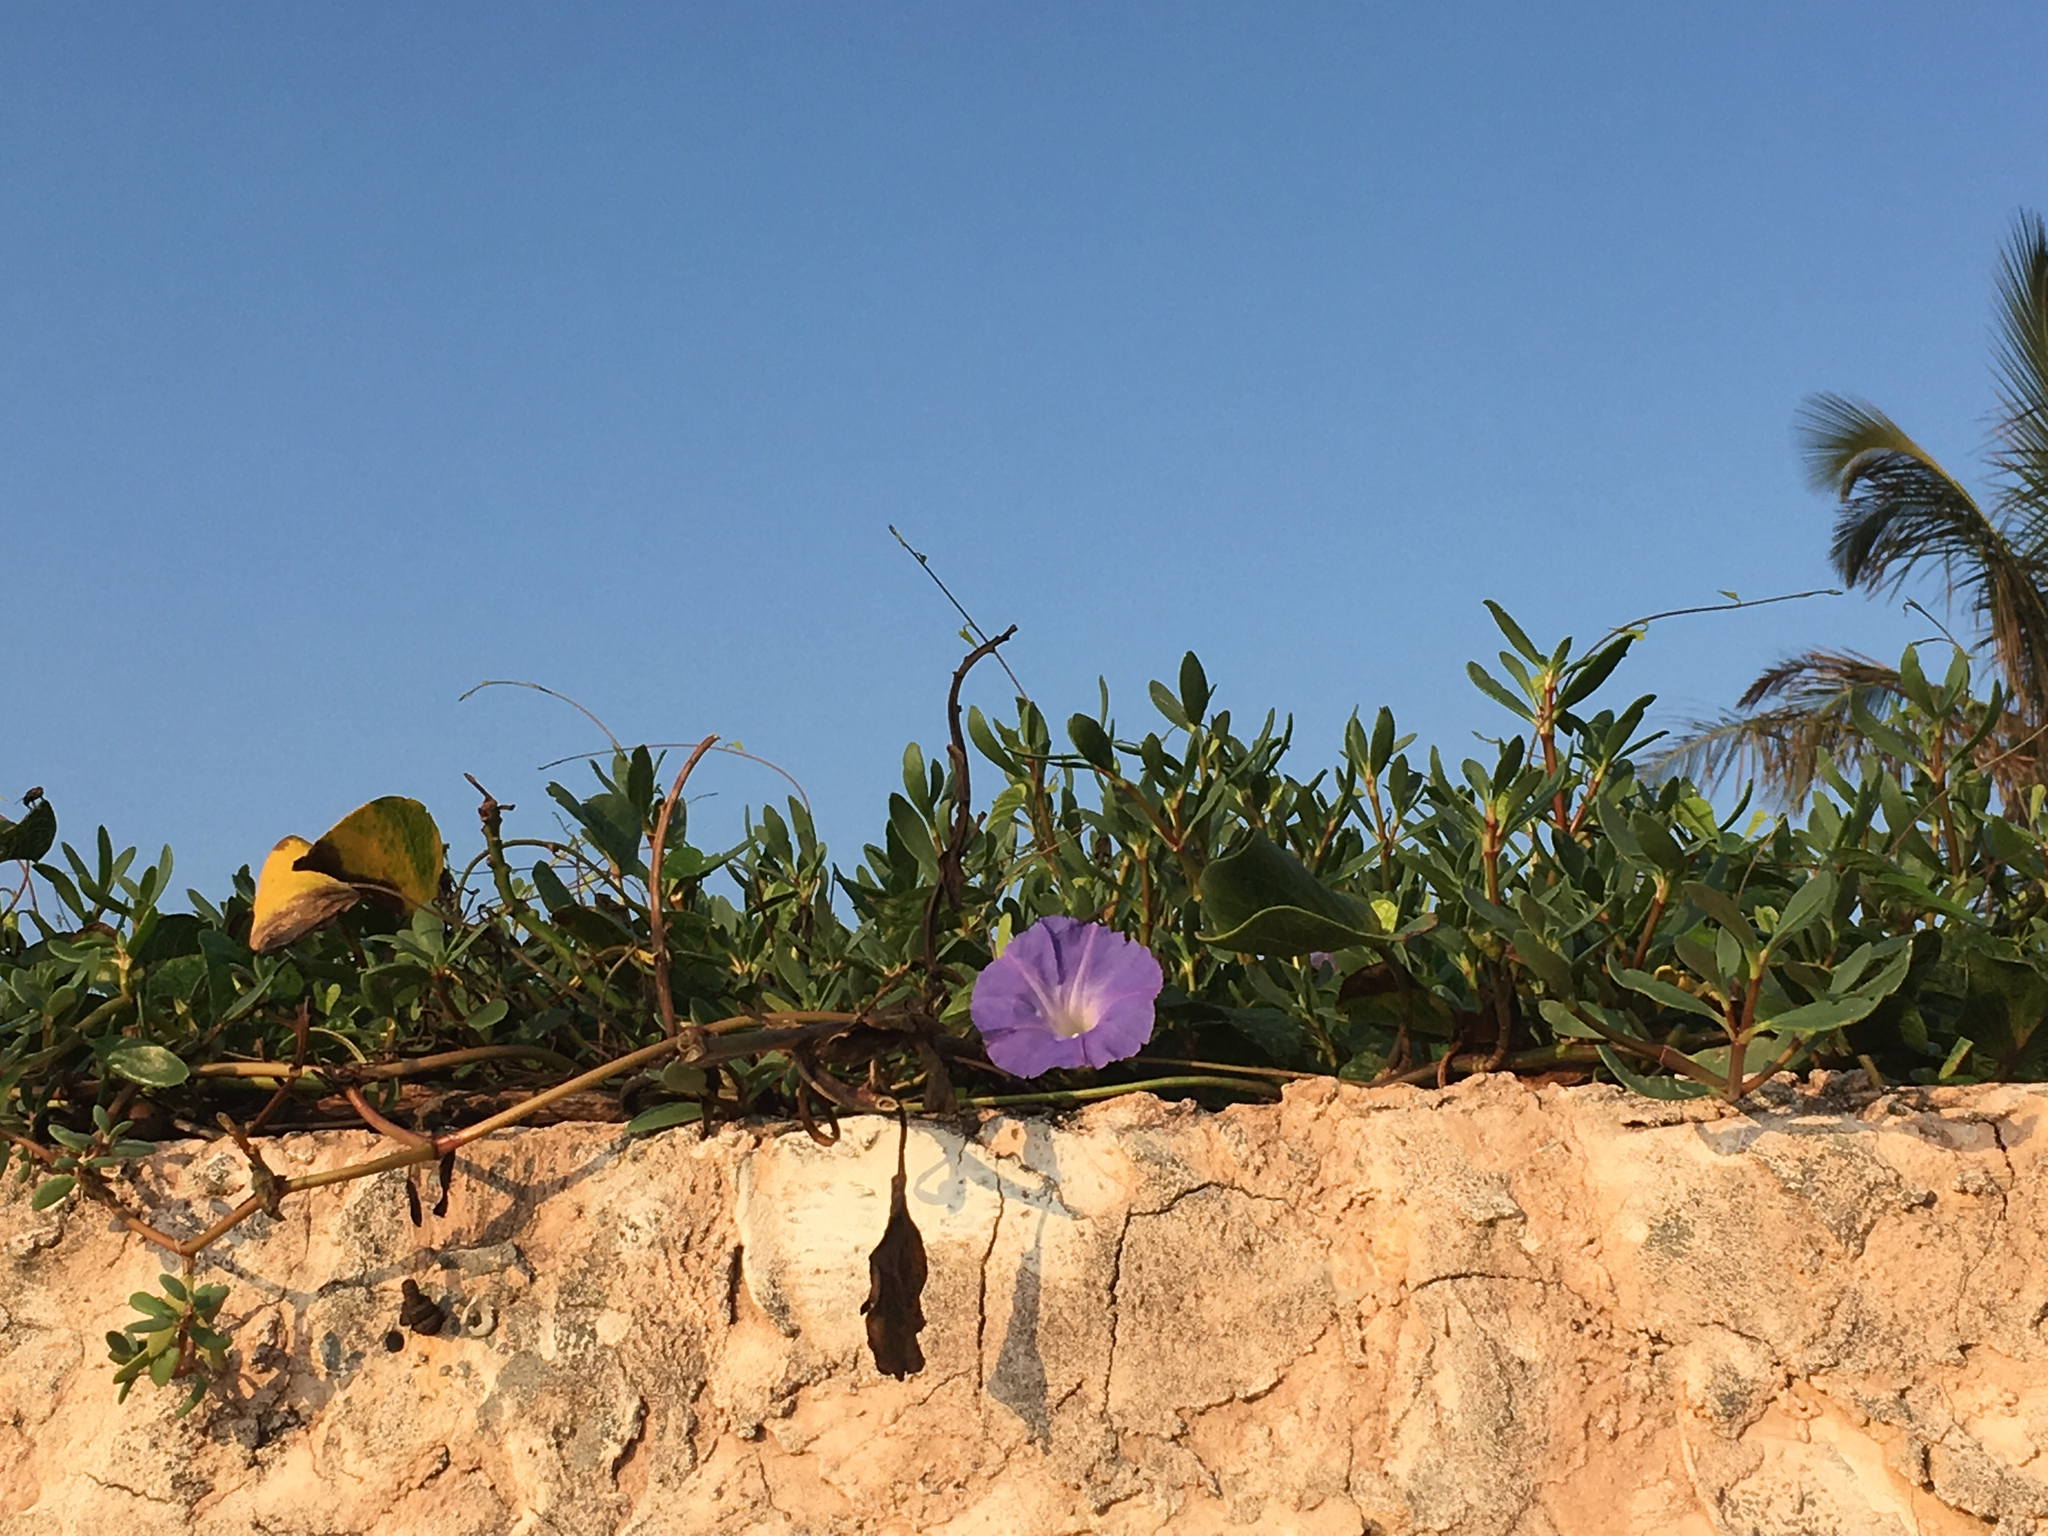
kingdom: Plantae
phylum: Tracheophyta
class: Magnoliopsida
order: Solanales
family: Convolvulaceae
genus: Ipomoea
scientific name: Ipomoea
